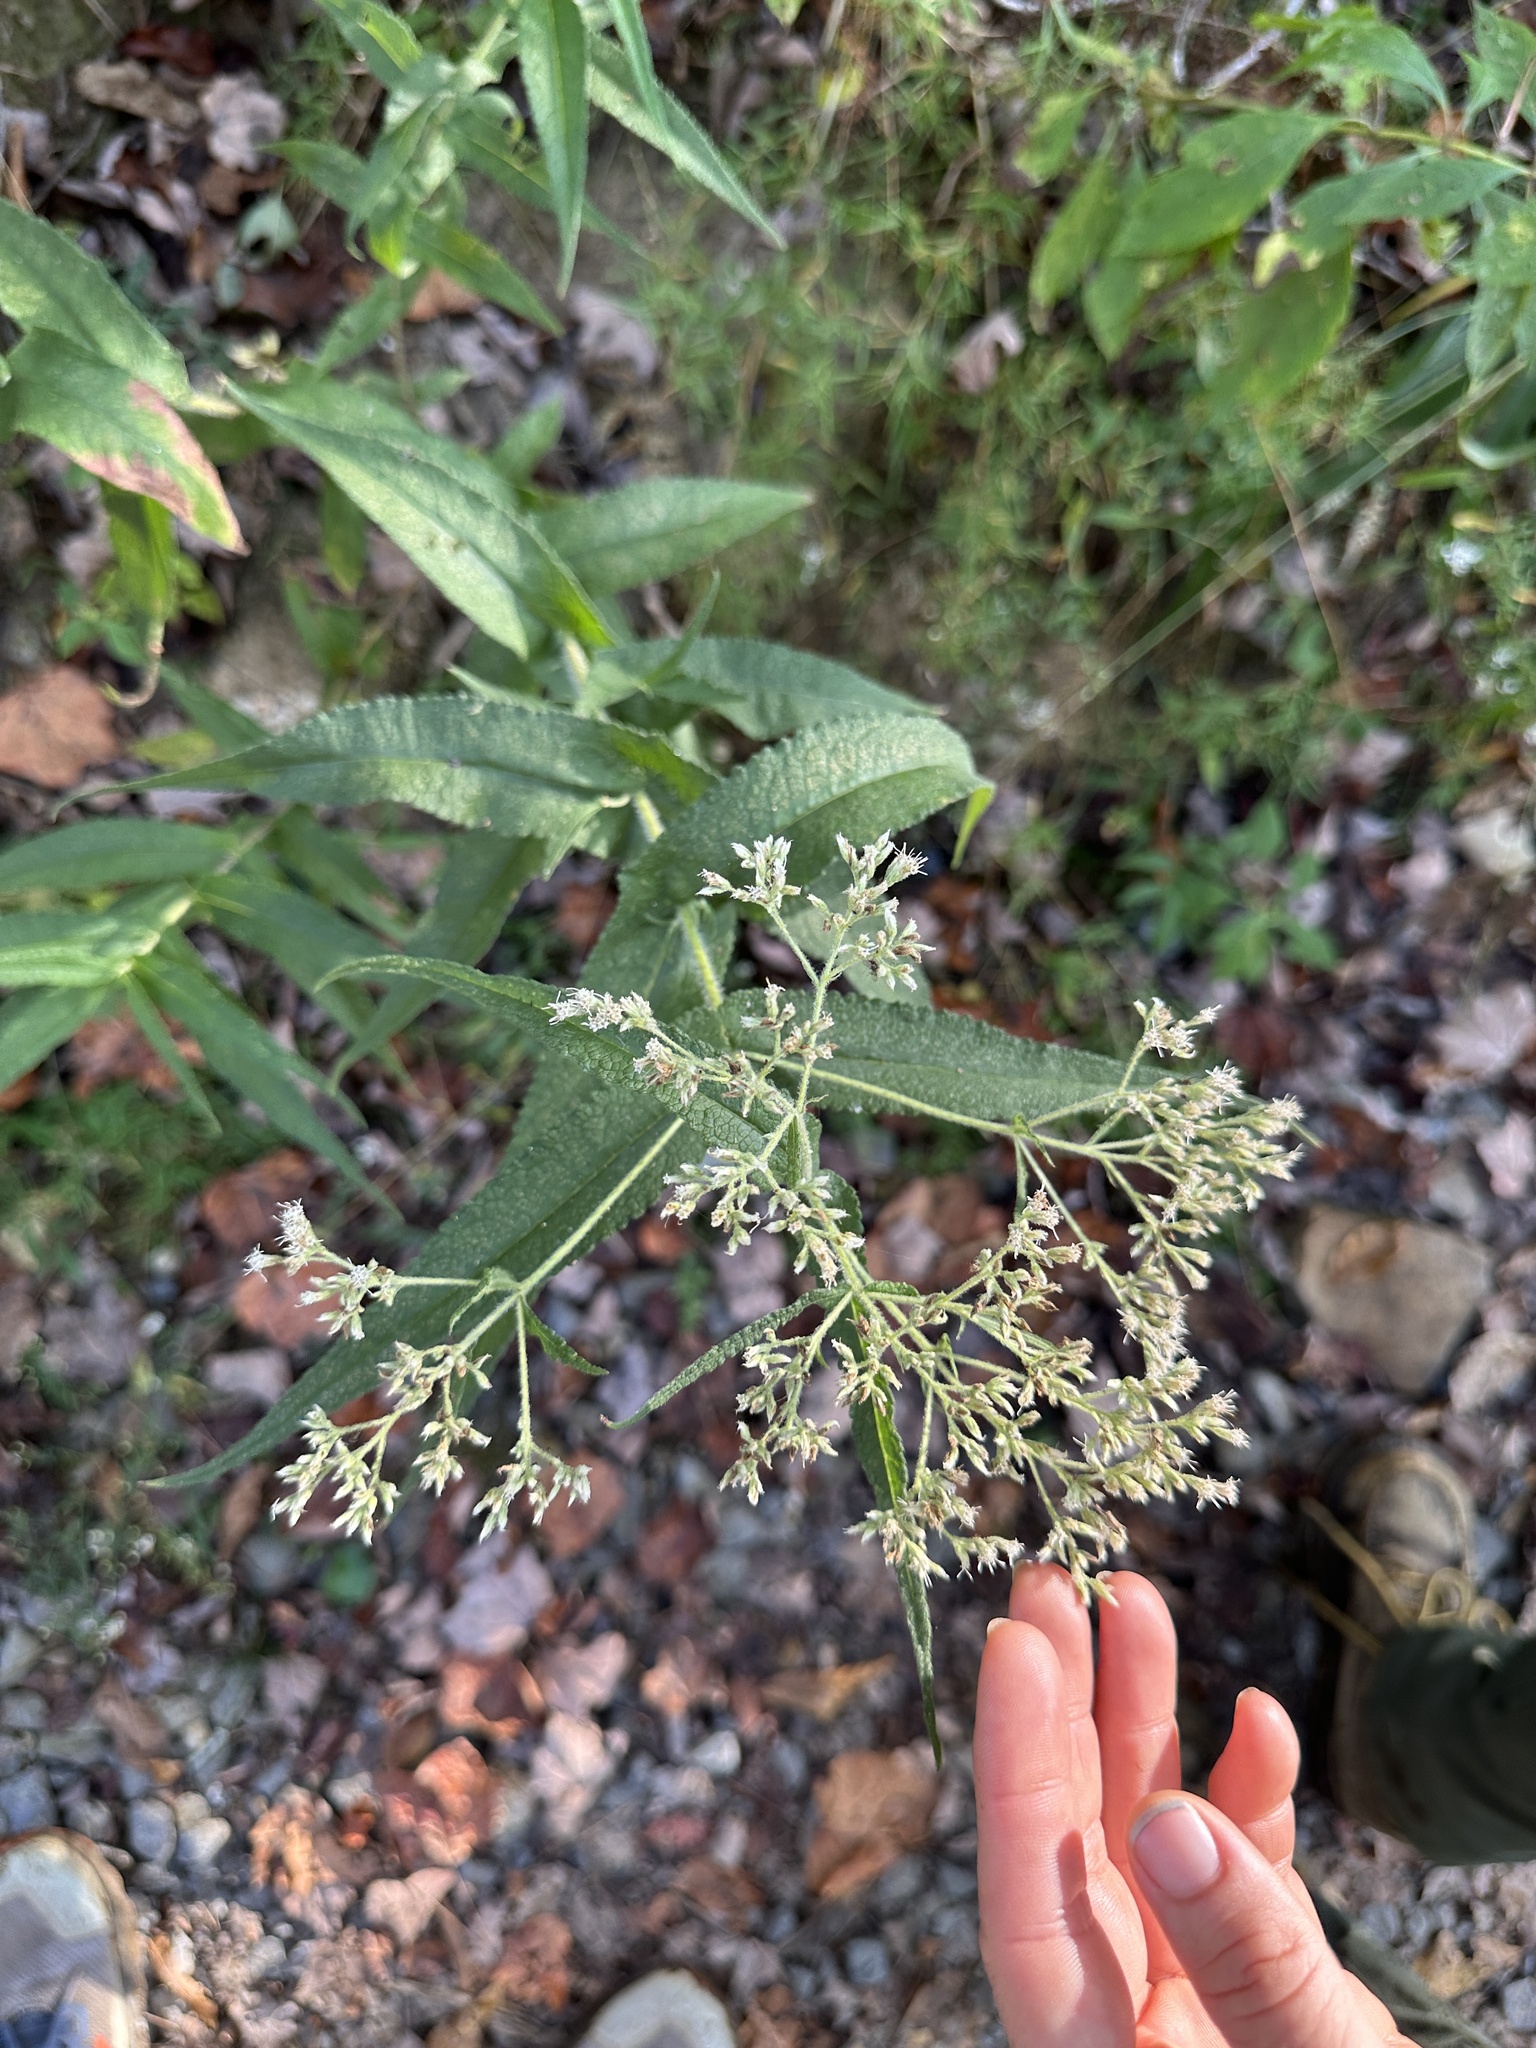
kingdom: Plantae
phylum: Tracheophyta
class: Magnoliopsida
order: Asterales
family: Asteraceae
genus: Eupatorium
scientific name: Eupatorium perfoliatum
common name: Boneset
